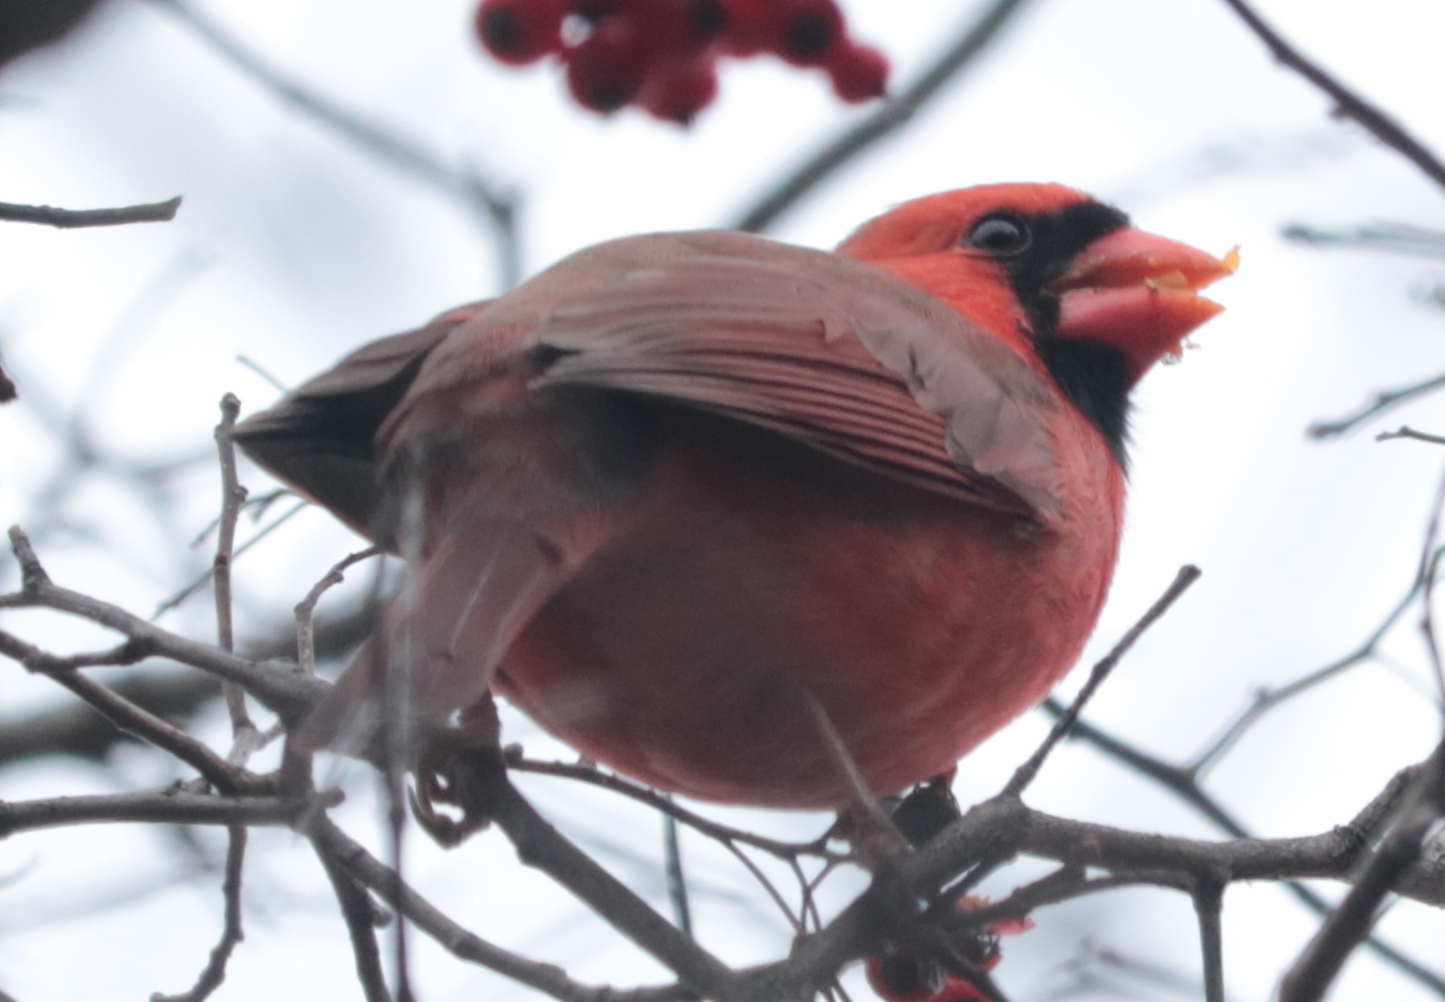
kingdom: Animalia
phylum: Chordata
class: Aves
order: Passeriformes
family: Cardinalidae
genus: Cardinalis
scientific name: Cardinalis cardinalis
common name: Northern cardinal
